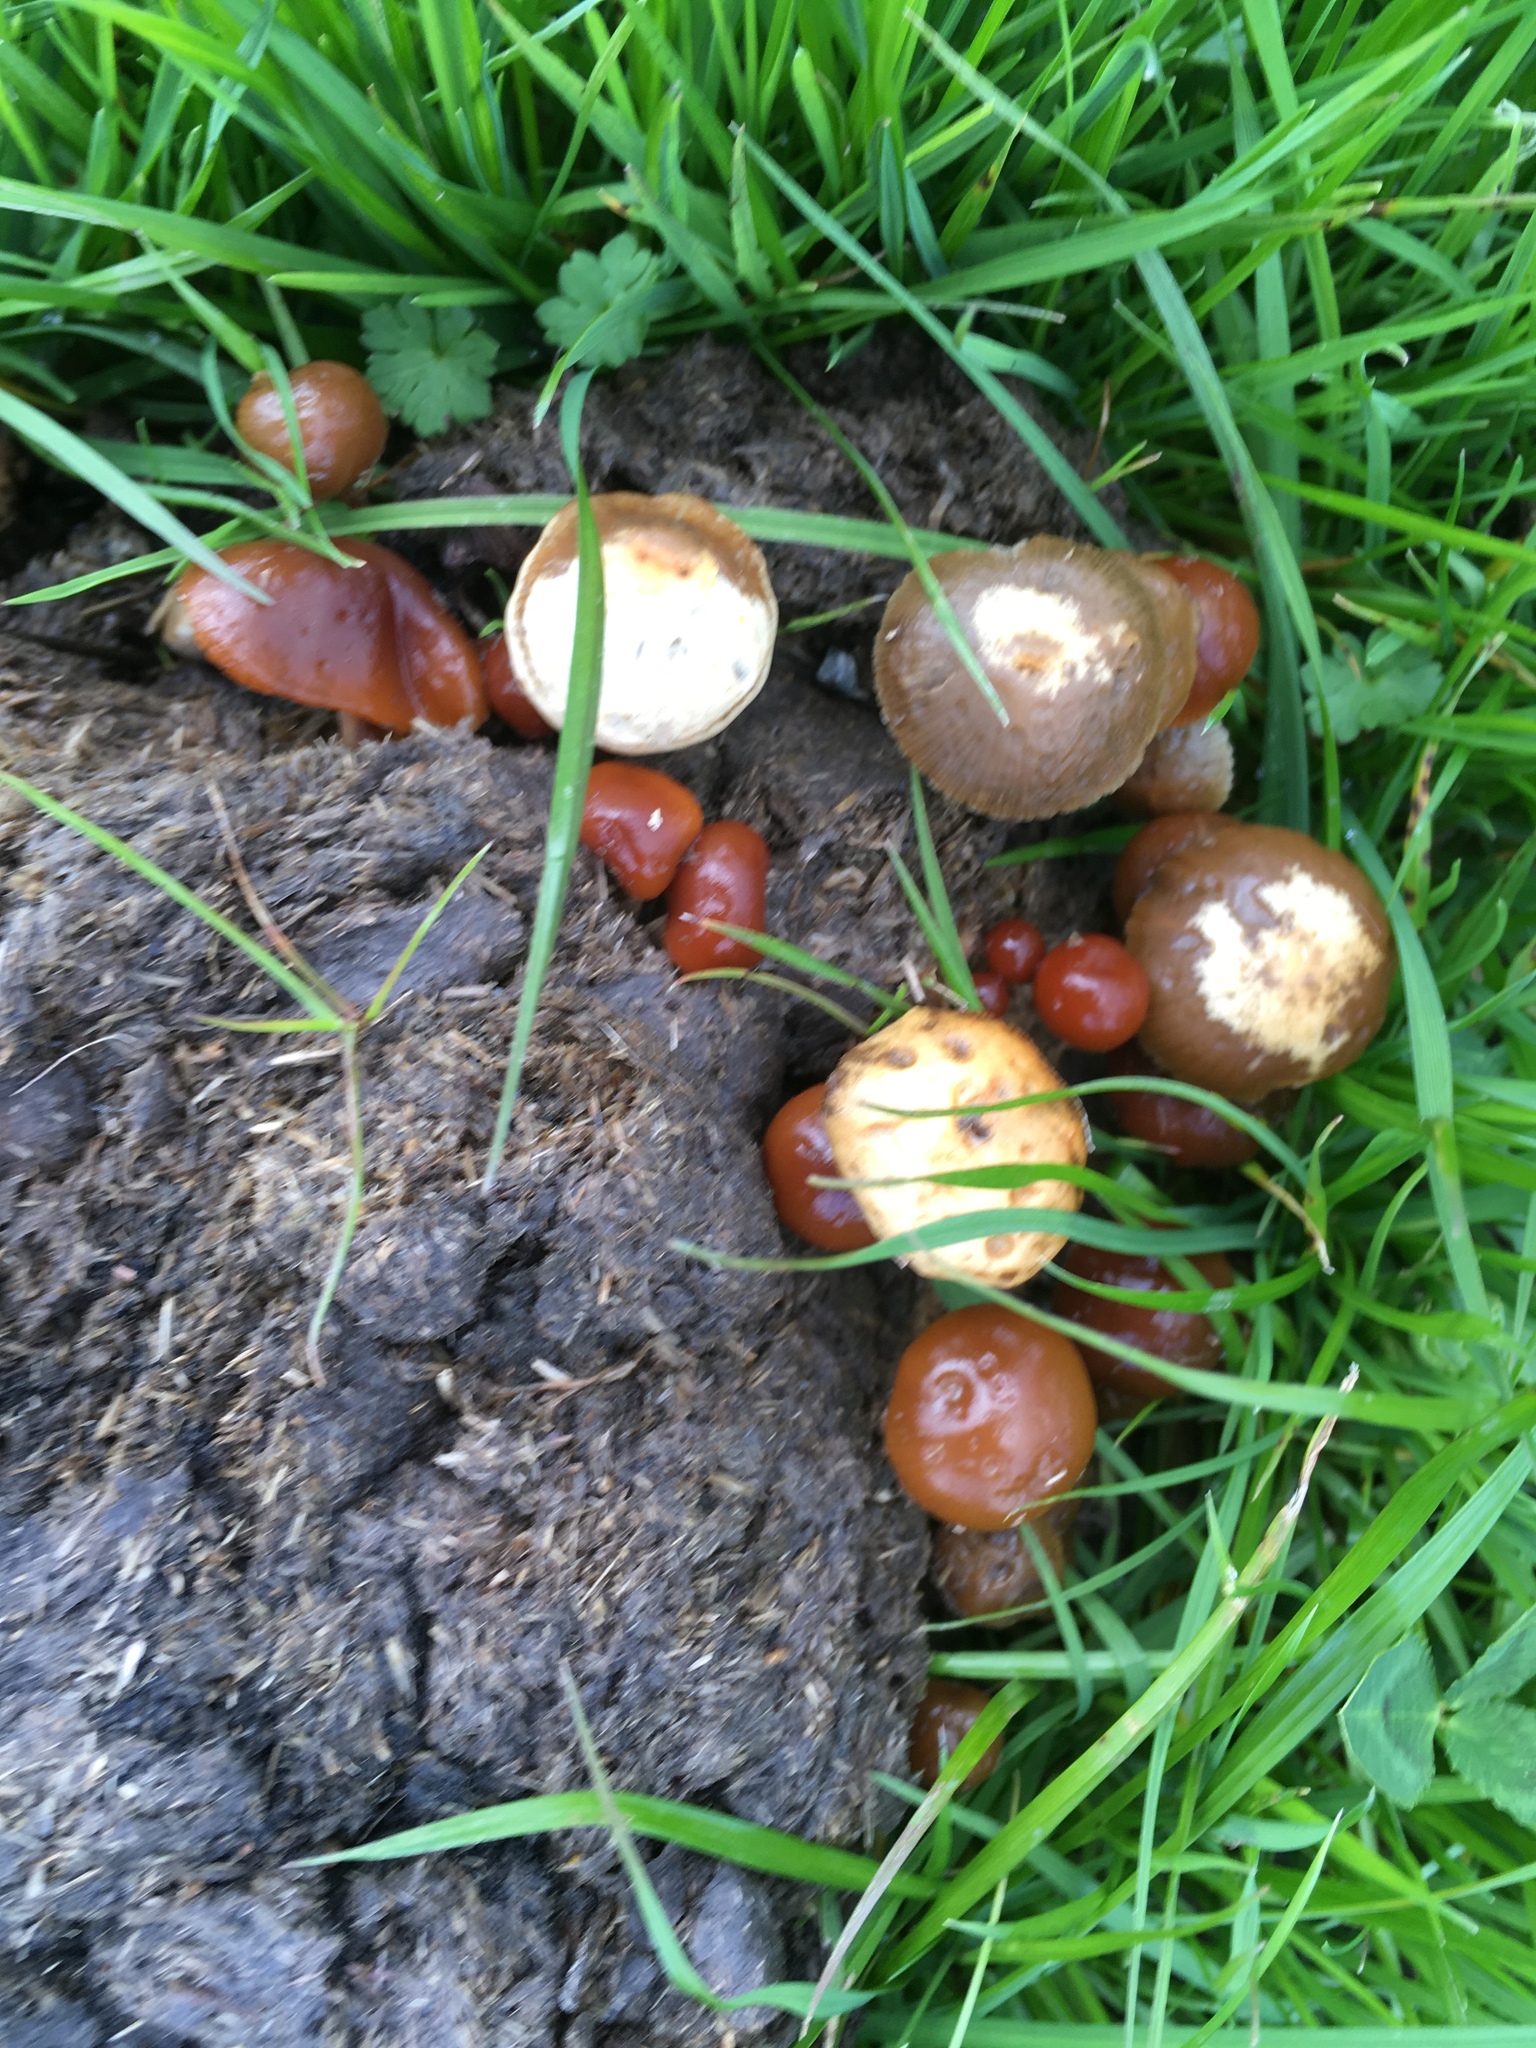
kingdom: Fungi
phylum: Basidiomycota
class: Agaricomycetes
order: Agaricales
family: Strophariaceae
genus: Deconica
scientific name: Deconica coprophila
